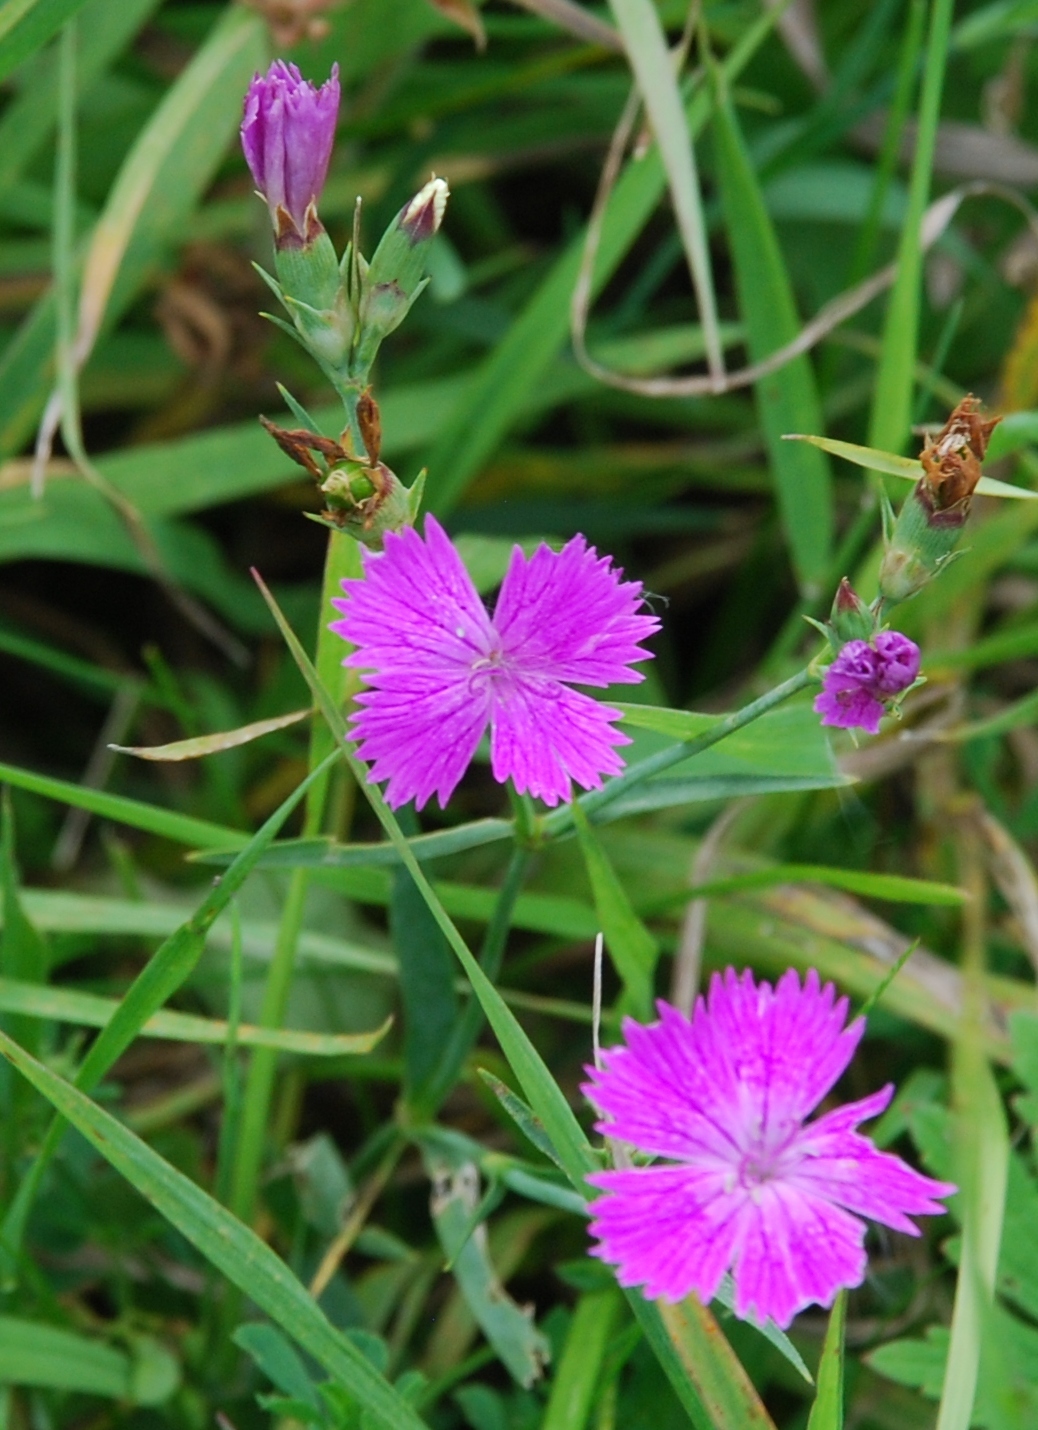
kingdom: Plantae
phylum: Tracheophyta
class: Magnoliopsida
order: Caryophyllales
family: Caryophyllaceae
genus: Dianthus
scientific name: Dianthus chinensis
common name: Rainbow pink
